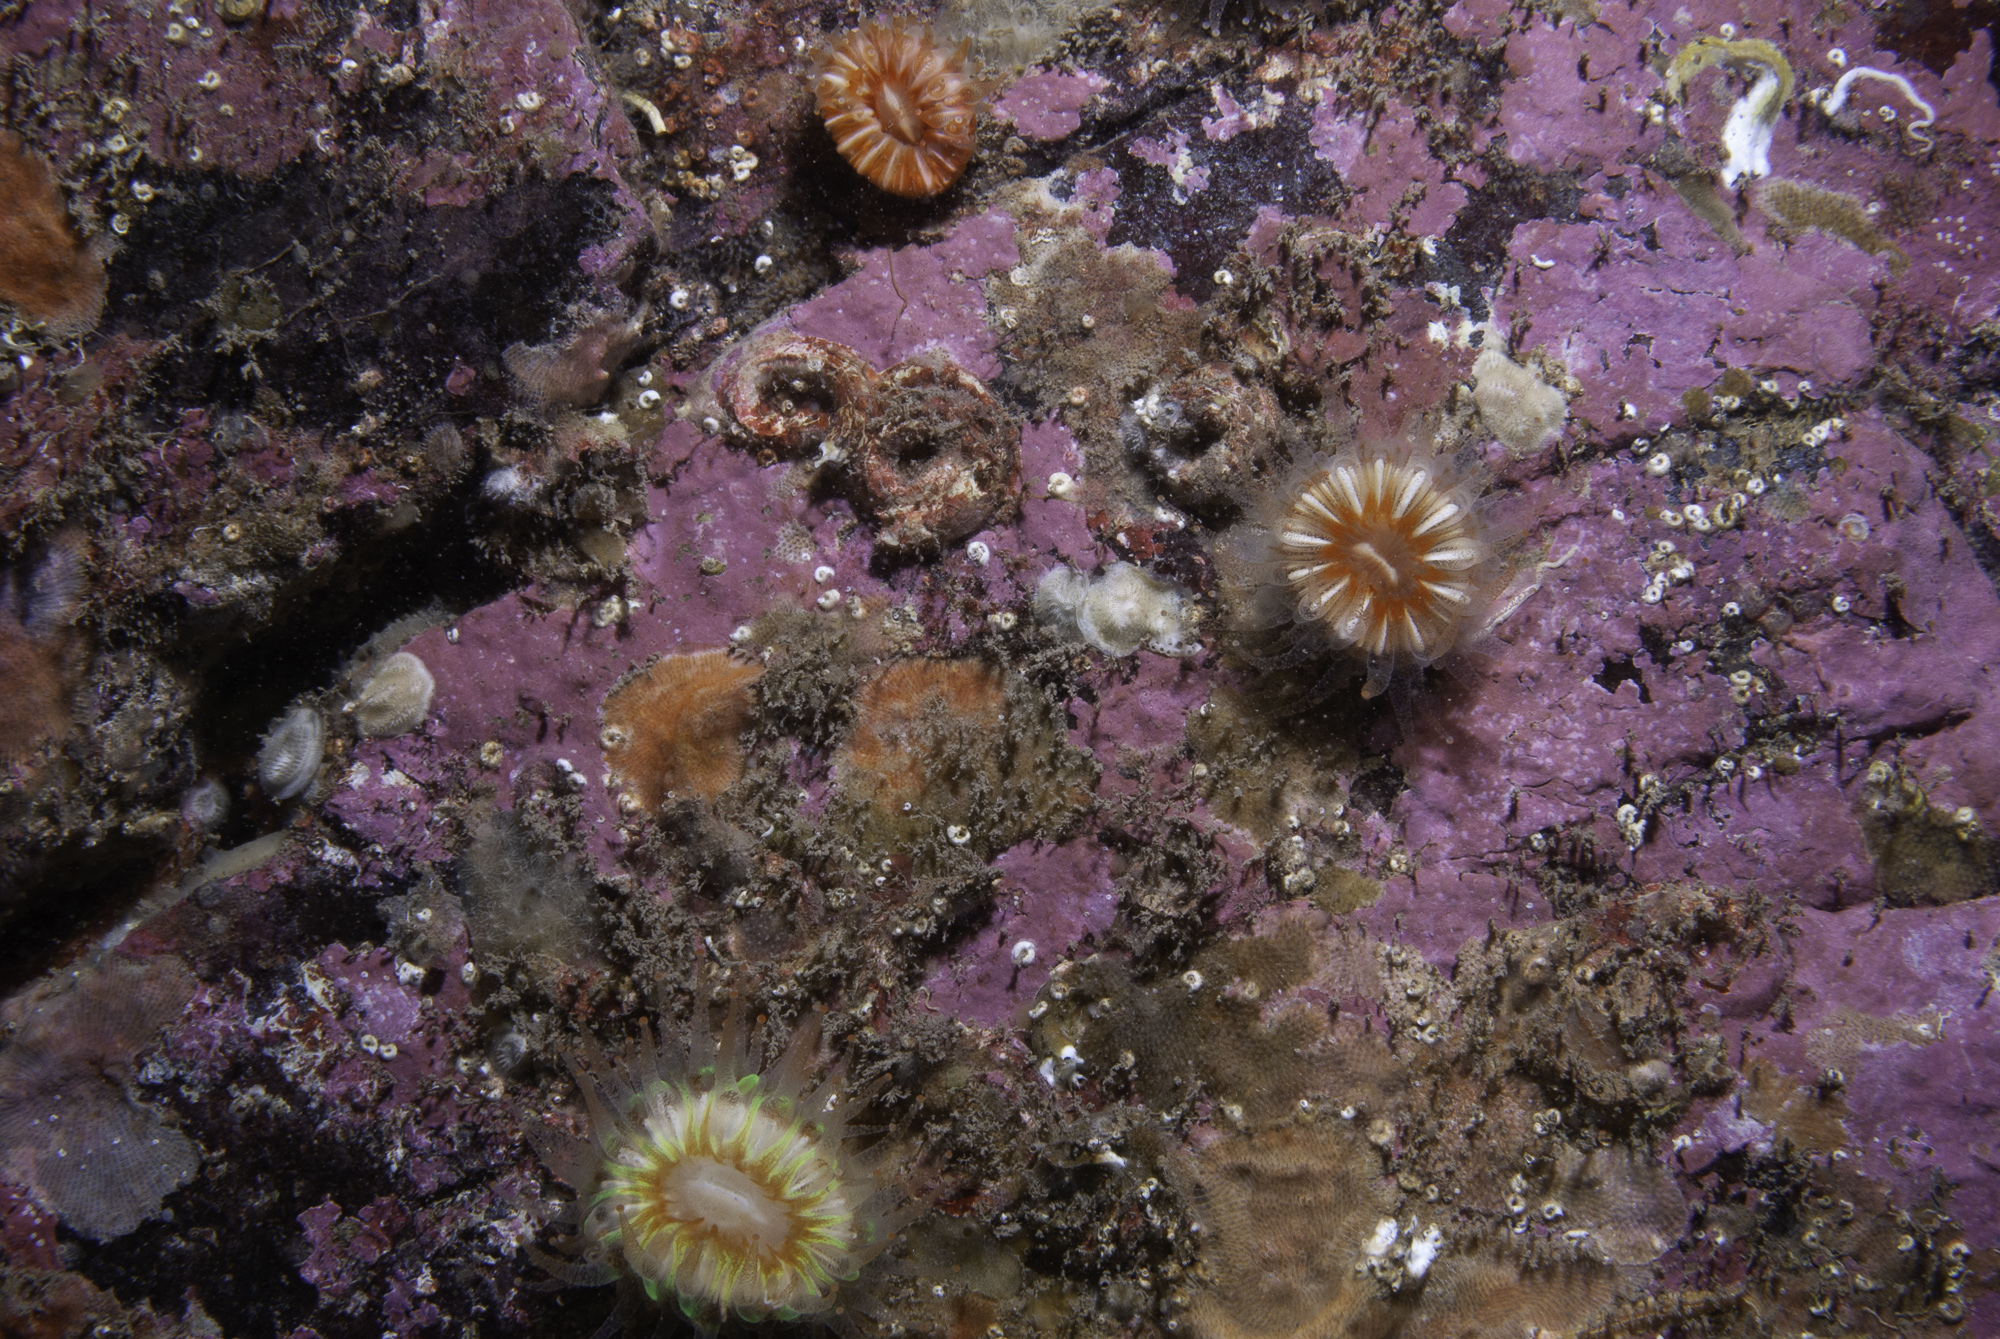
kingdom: Animalia
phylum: Cnidaria
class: Anthozoa
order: Scleractinia
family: Caryophylliidae
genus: Caryophyllia
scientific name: Caryophyllia smithii
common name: Devonshire cup coral
